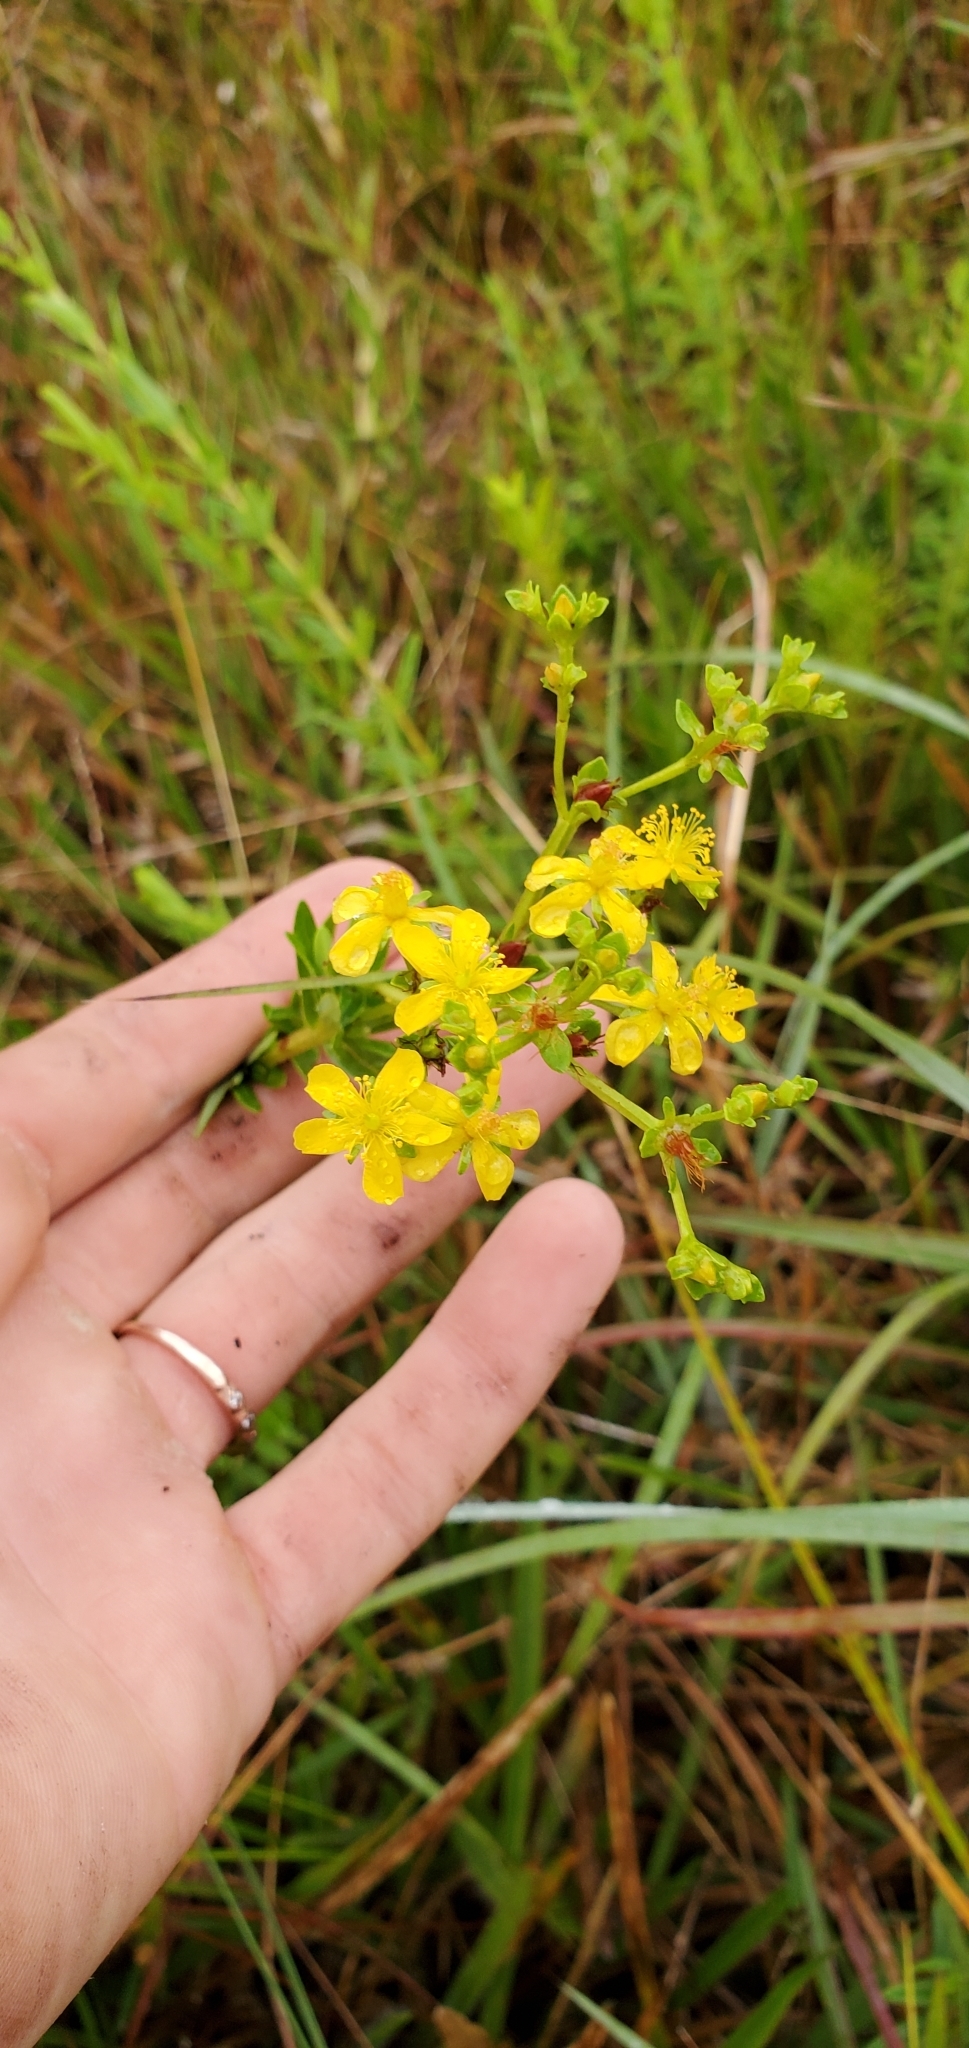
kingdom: Plantae
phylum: Tracheophyta
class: Magnoliopsida
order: Malpighiales
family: Hypericaceae
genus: Hypericum
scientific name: Hypericum cistifolium
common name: Round-pod st. john's-wort
